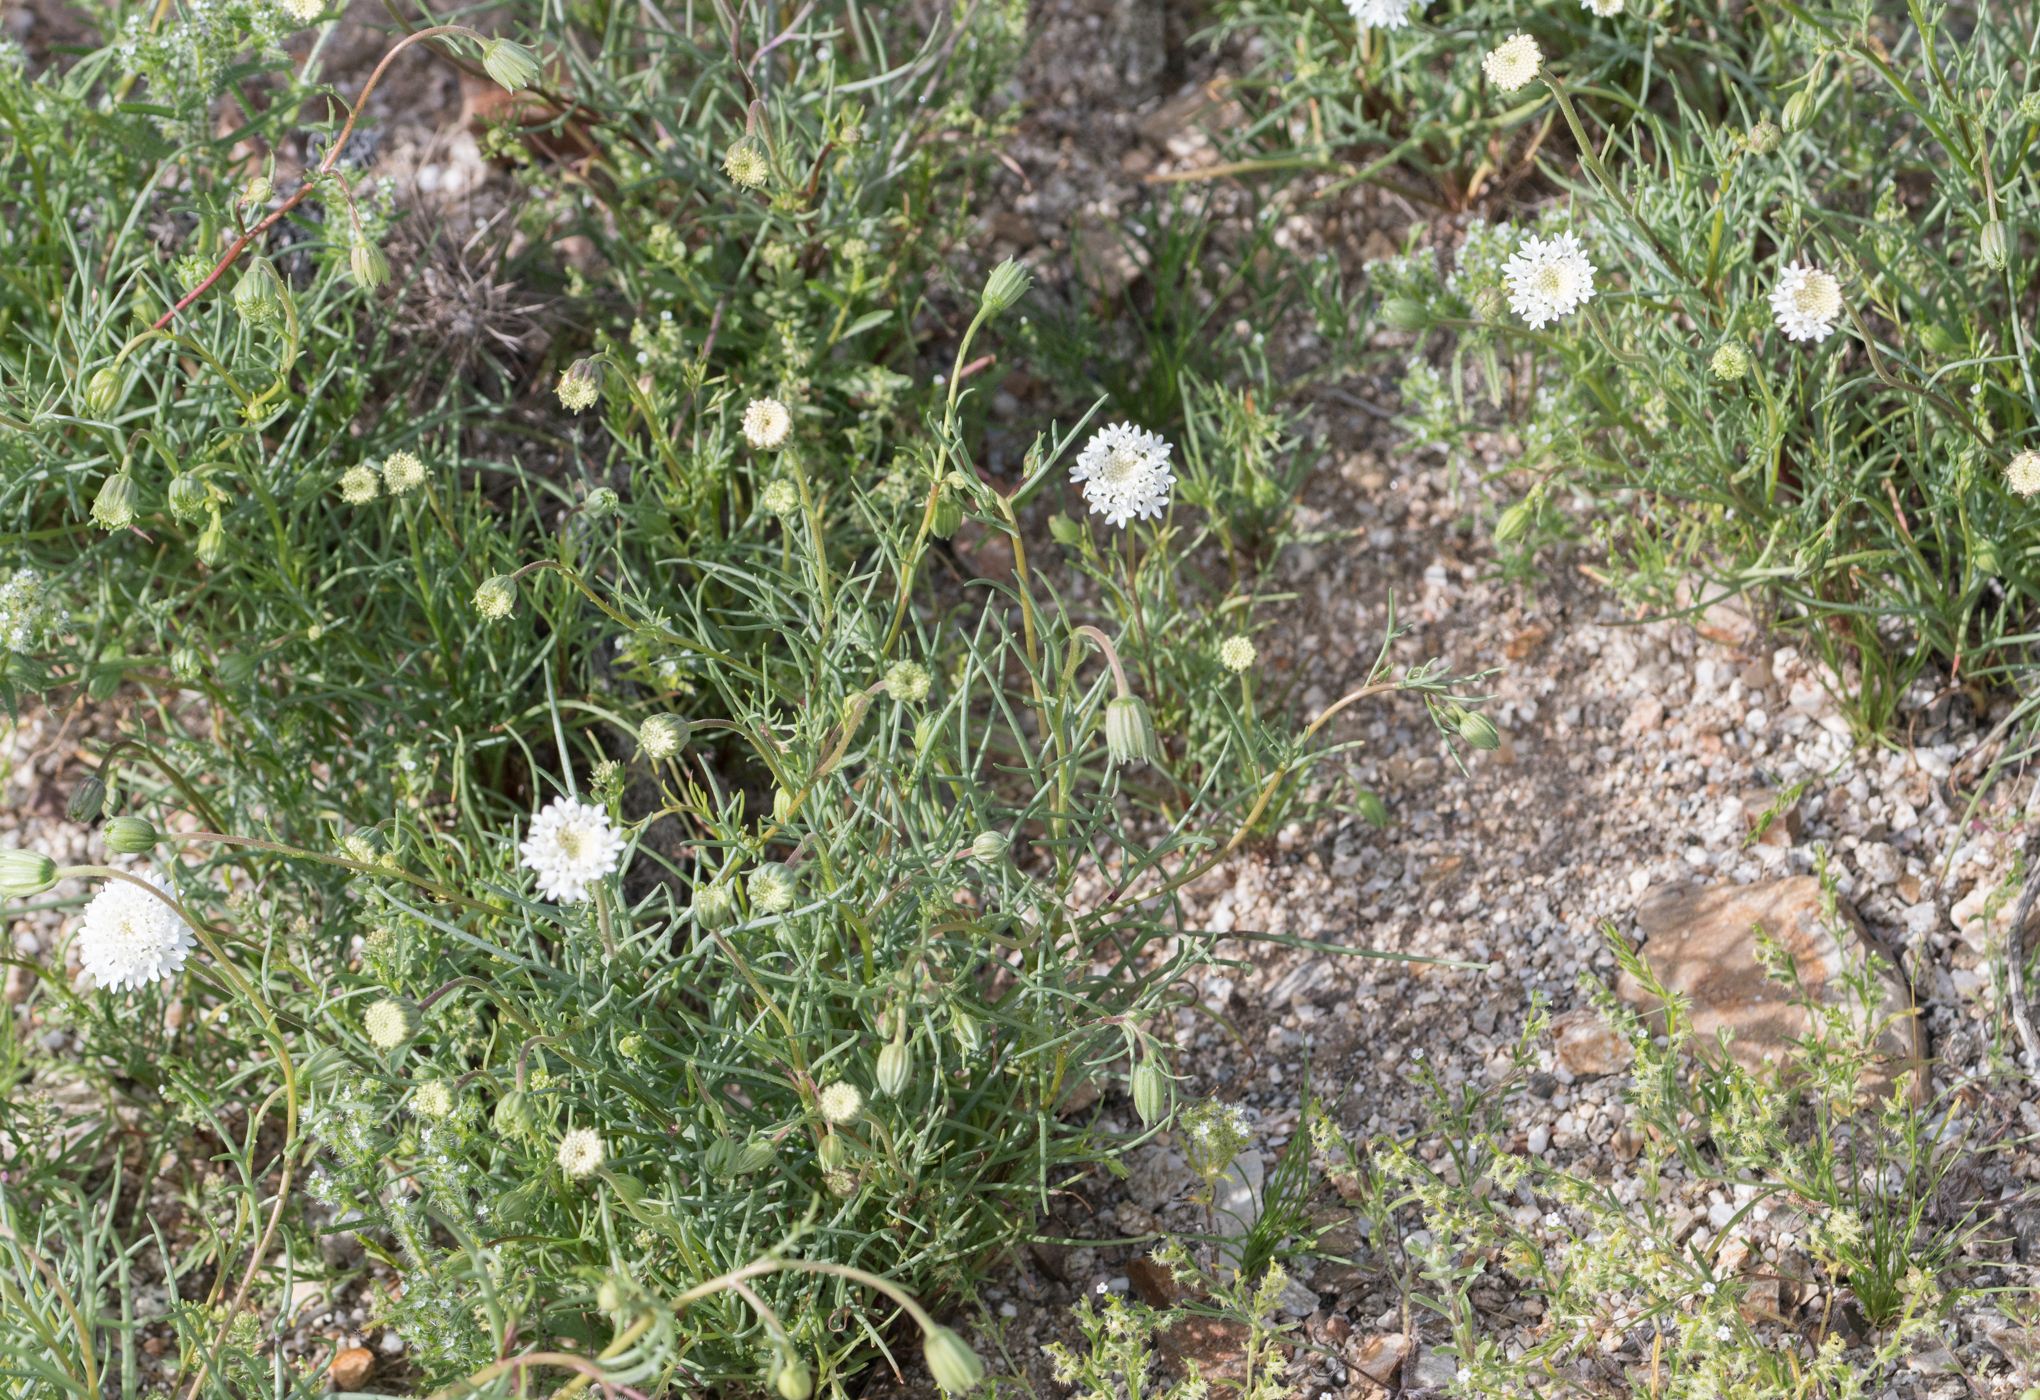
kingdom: Plantae
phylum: Tracheophyta
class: Magnoliopsida
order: Asterales
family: Asteraceae
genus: Chaenactis
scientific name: Chaenactis fremontii
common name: Fremont pincushion
